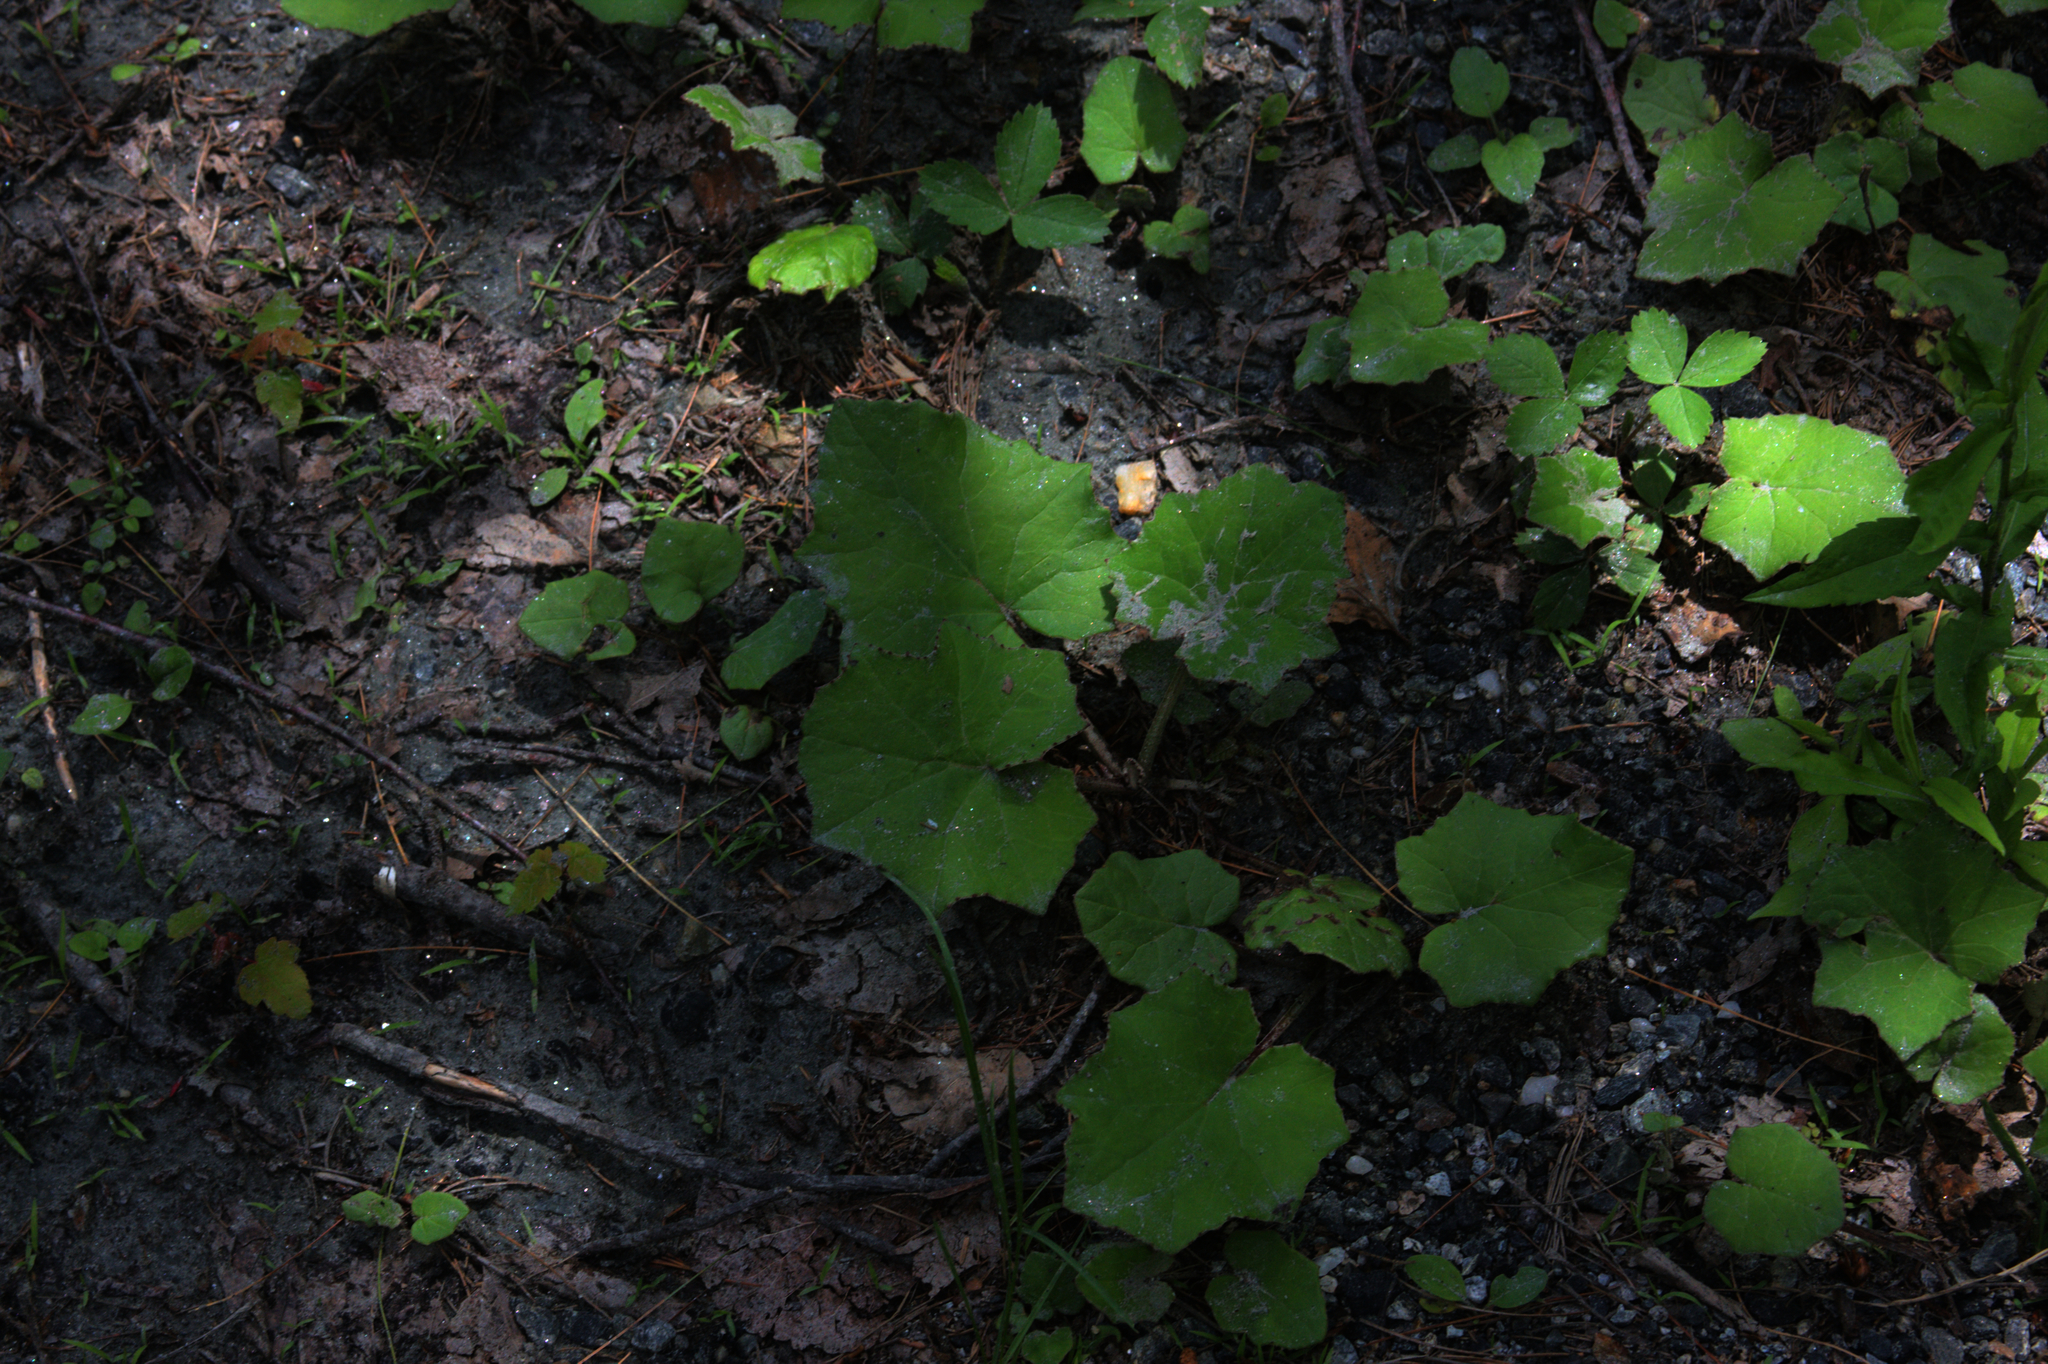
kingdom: Plantae
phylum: Tracheophyta
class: Magnoliopsida
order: Asterales
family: Asteraceae
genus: Tussilago
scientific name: Tussilago farfara
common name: Coltsfoot
